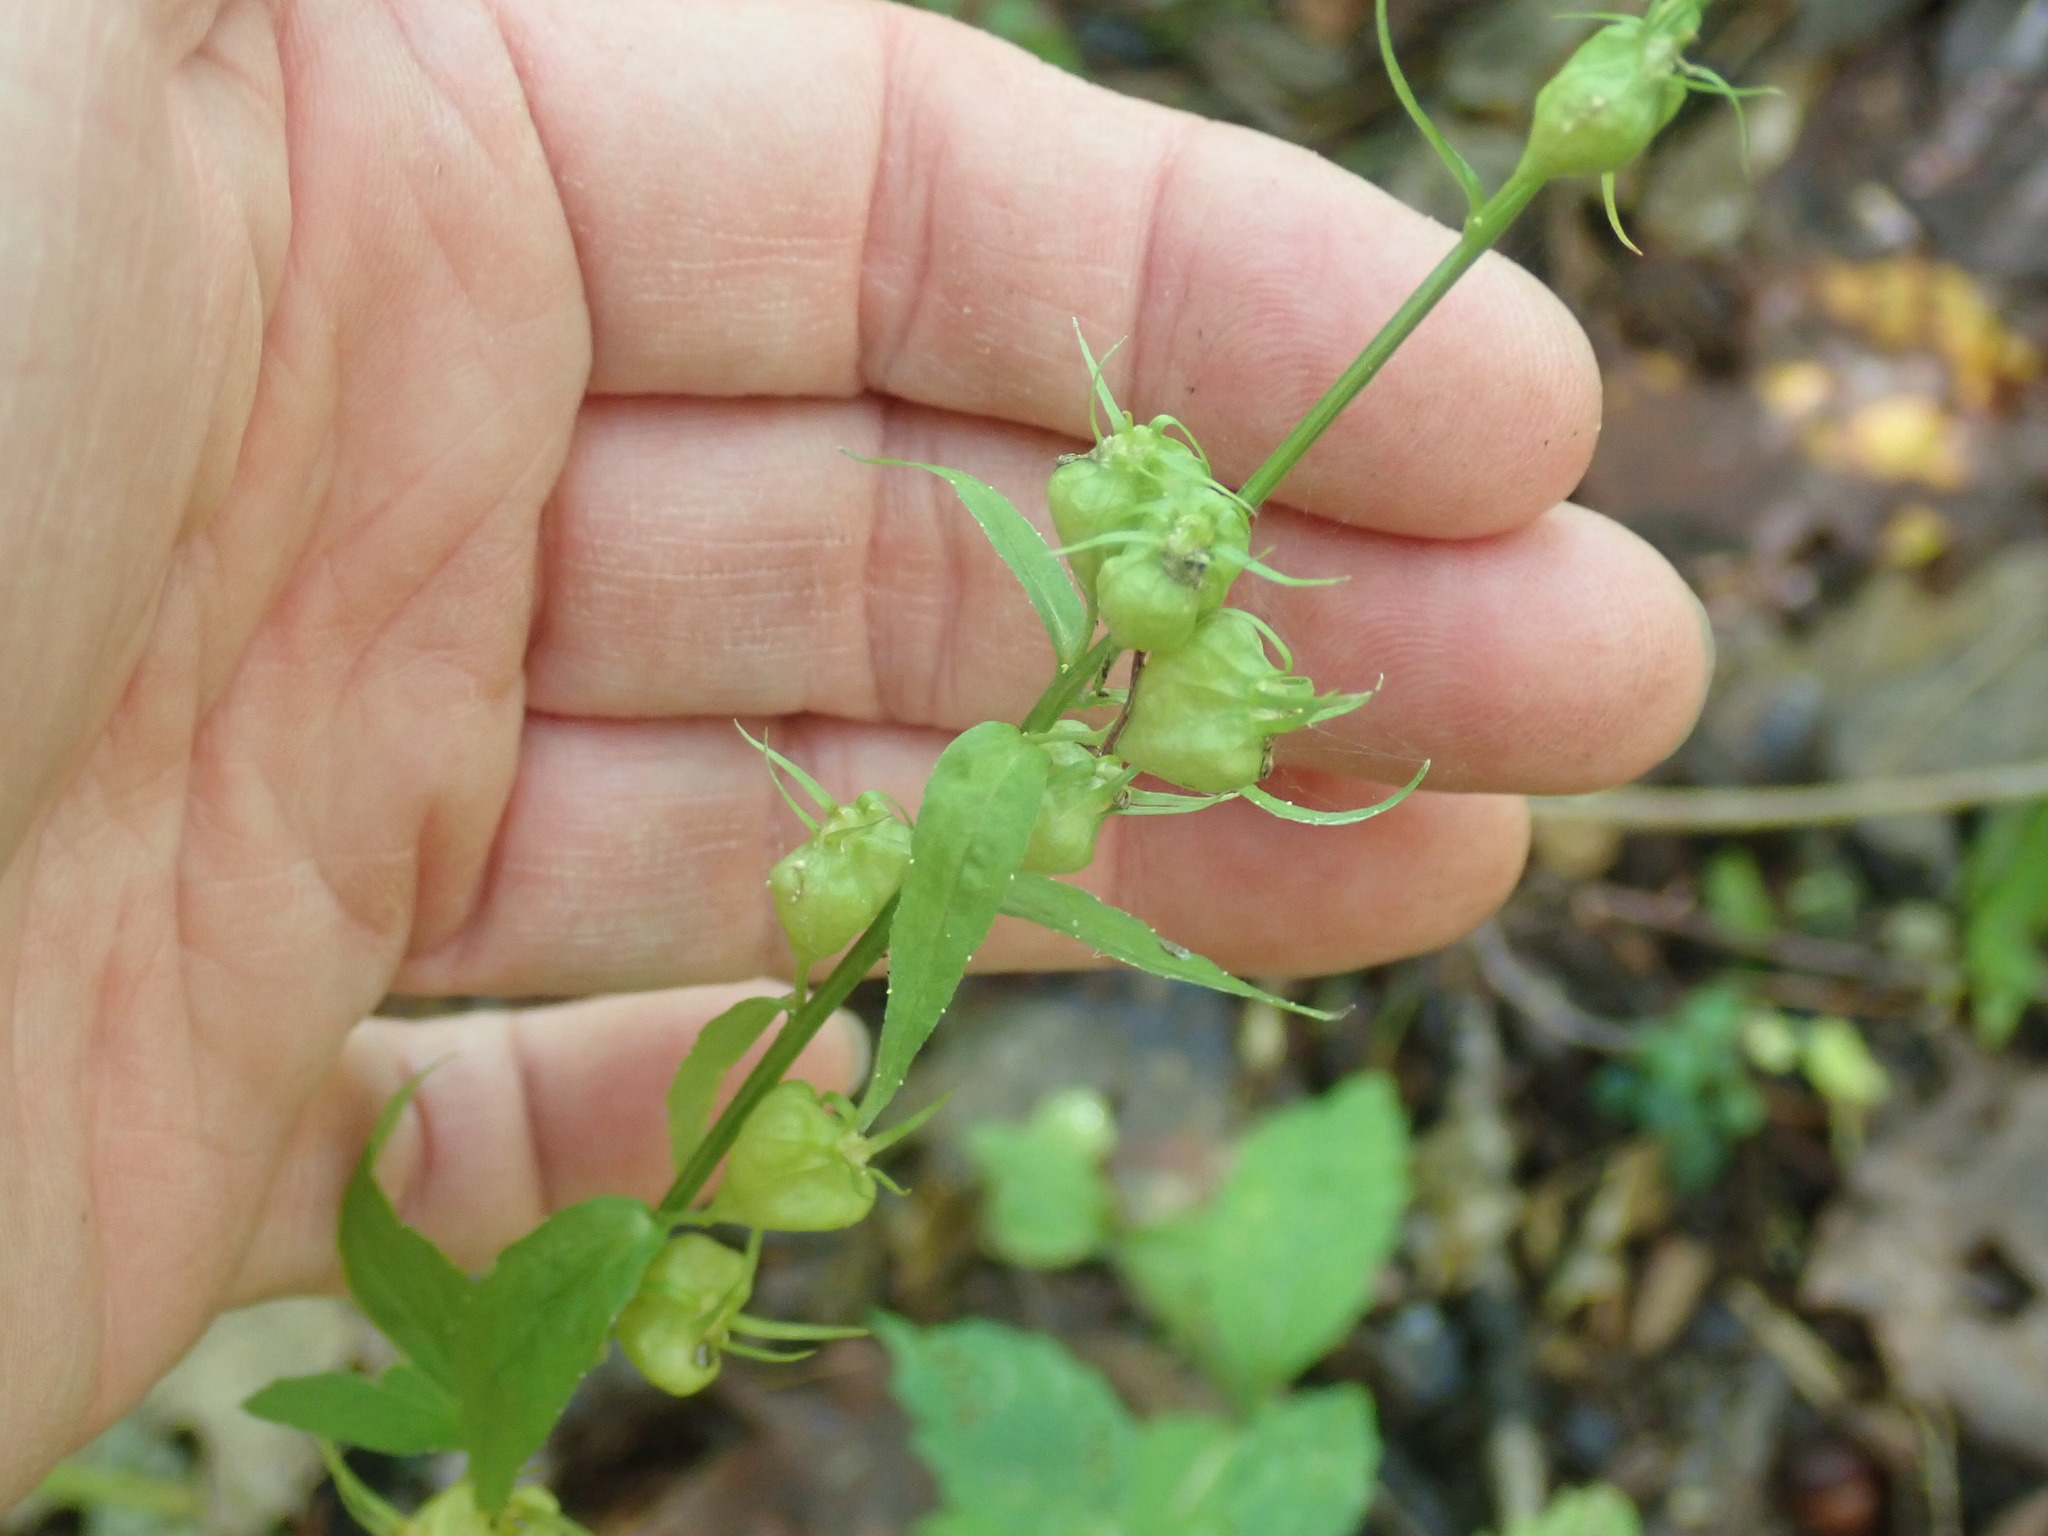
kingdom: Plantae
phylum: Tracheophyta
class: Magnoliopsida
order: Asterales
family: Campanulaceae
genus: Lobelia
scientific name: Lobelia inflata
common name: Indian tobacco
